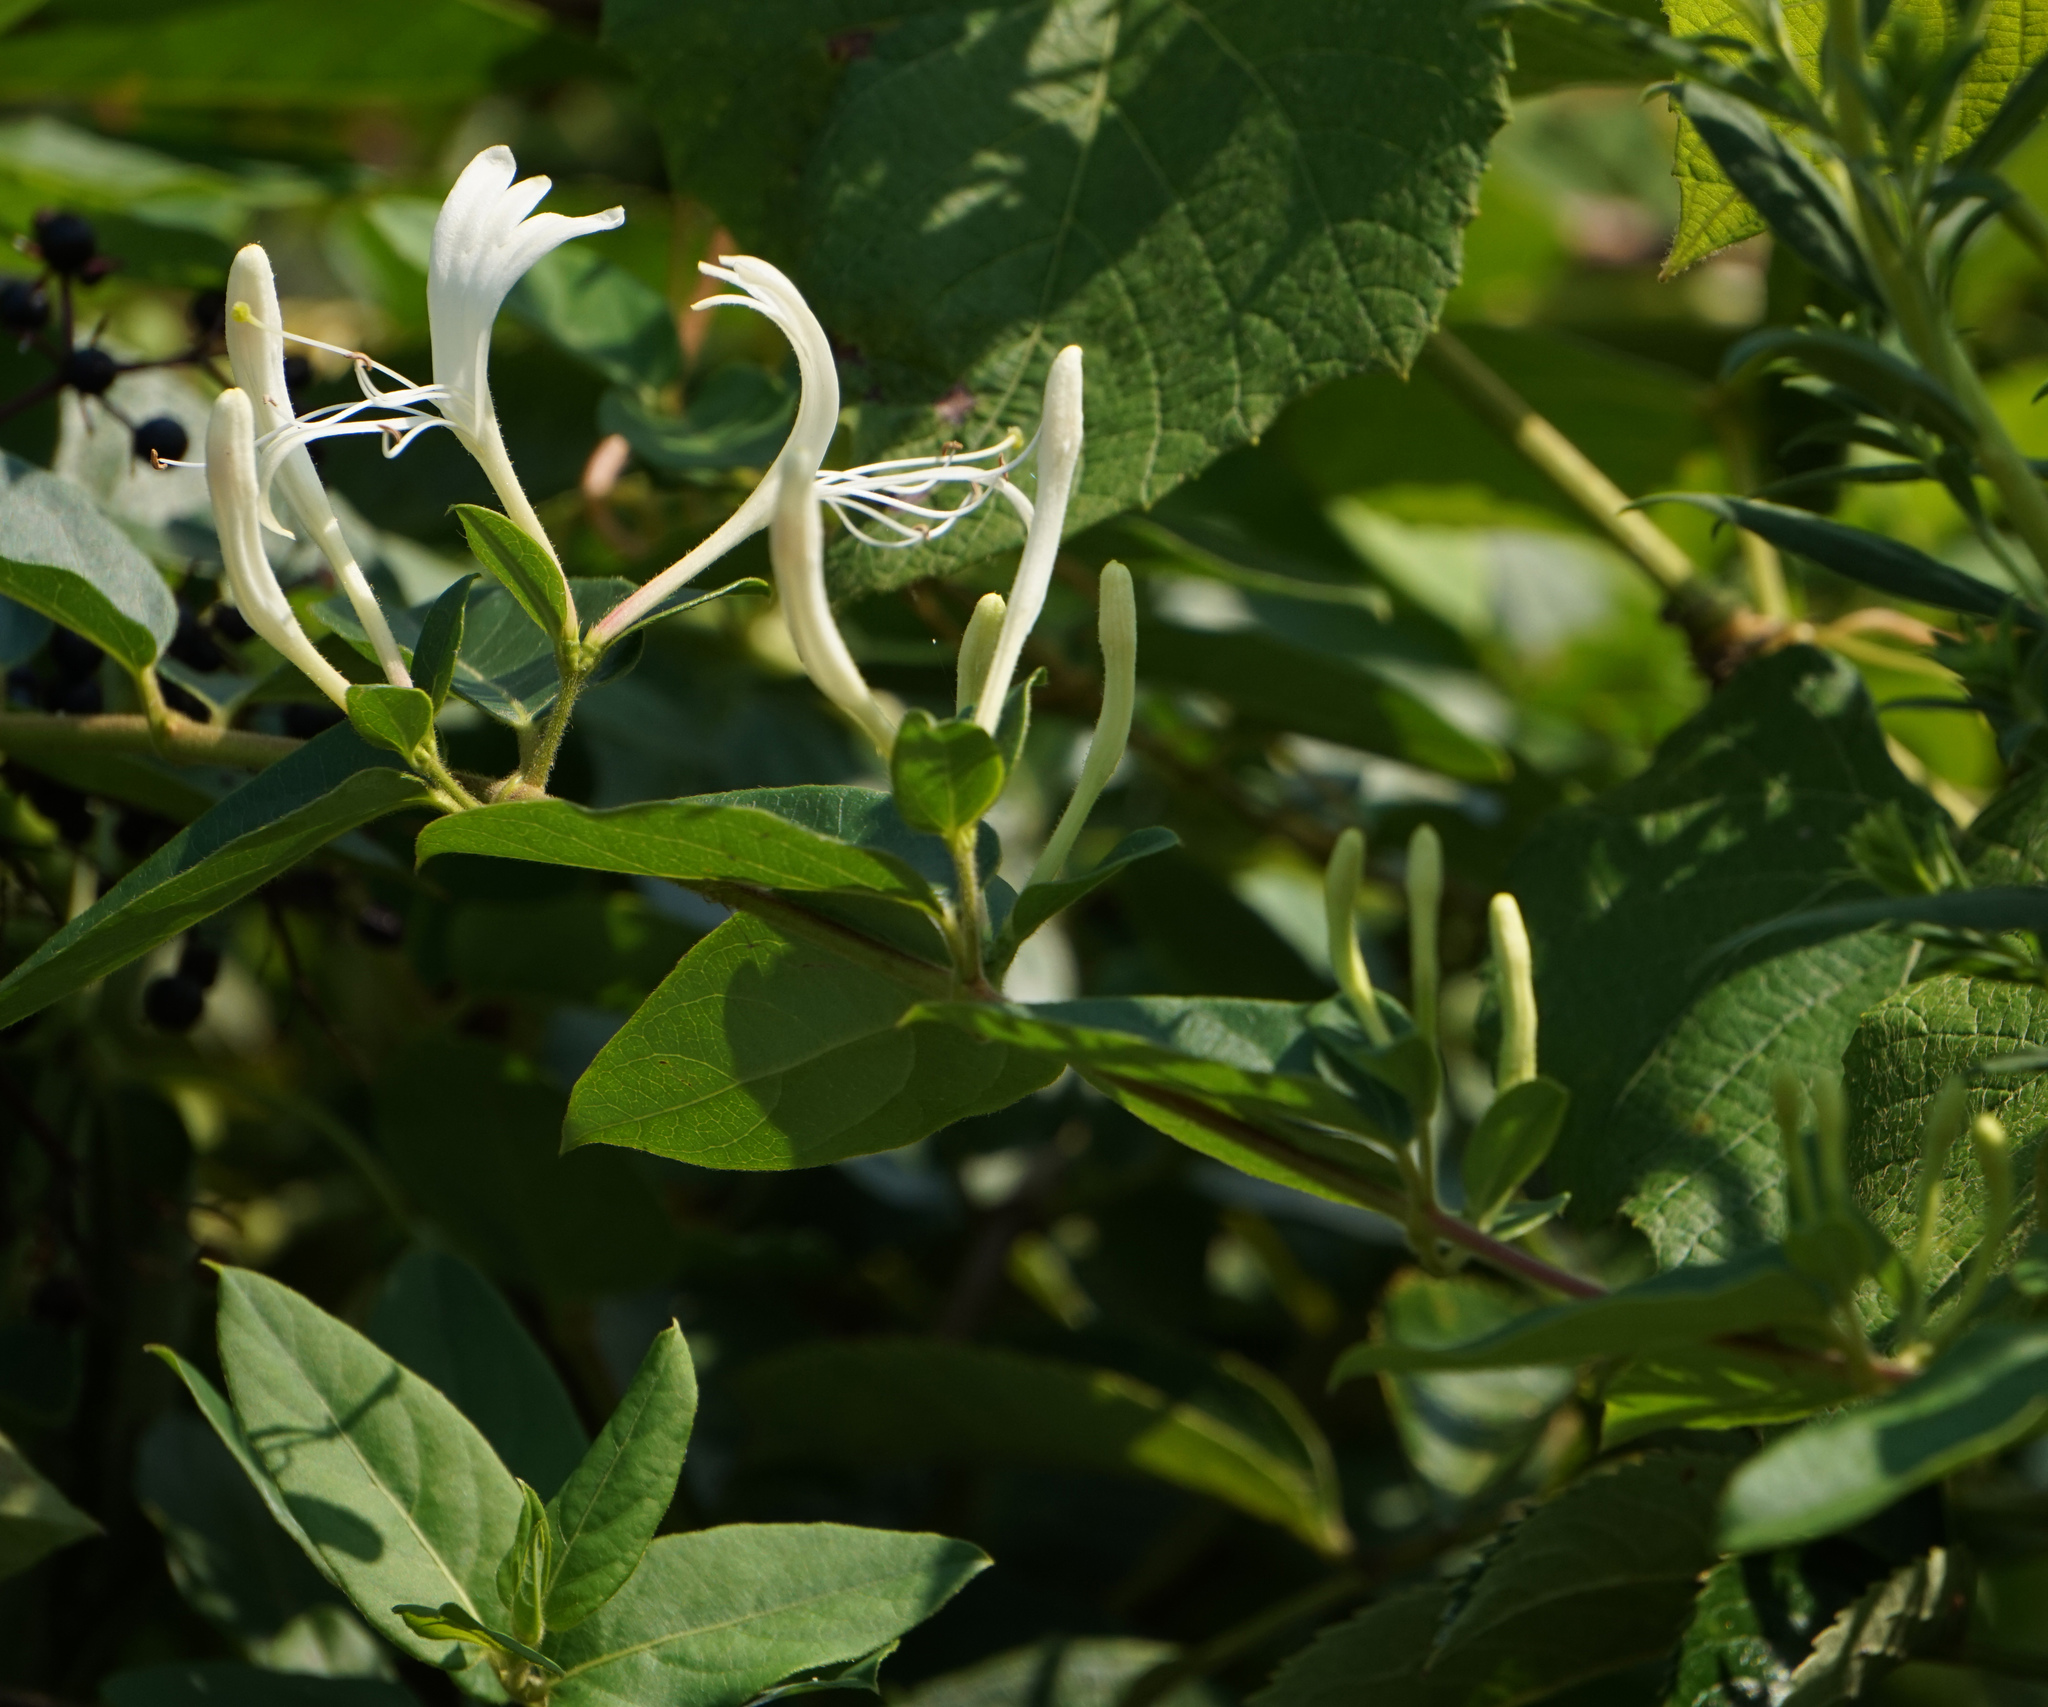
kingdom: Plantae
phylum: Tracheophyta
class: Magnoliopsida
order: Dipsacales
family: Caprifoliaceae
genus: Lonicera
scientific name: Lonicera japonica
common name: Japanese honeysuckle
